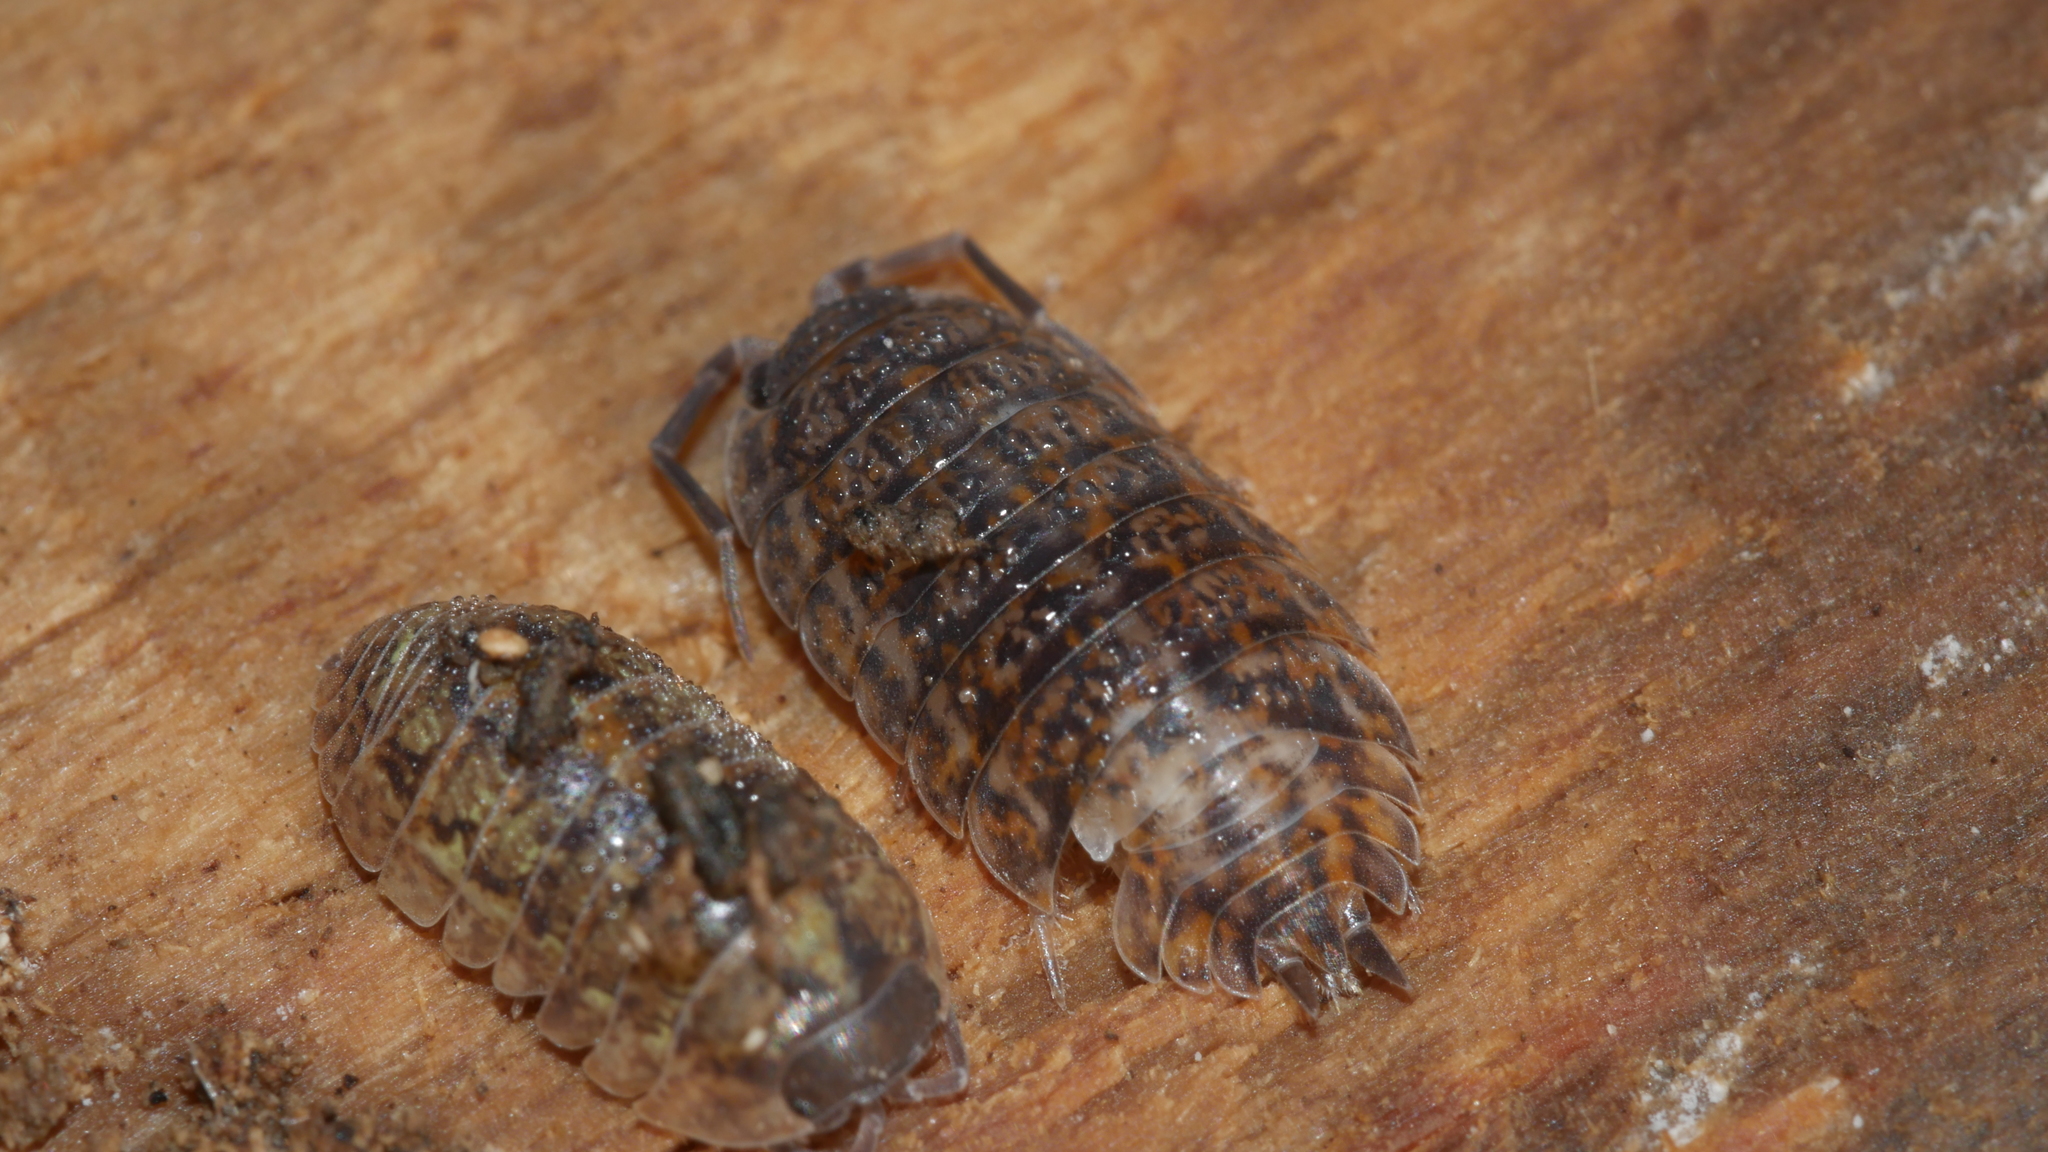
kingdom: Animalia
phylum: Arthropoda
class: Malacostraca
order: Isopoda
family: Trachelipodidae
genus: Trachelipus
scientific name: Trachelipus rathkii
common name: Isopod
